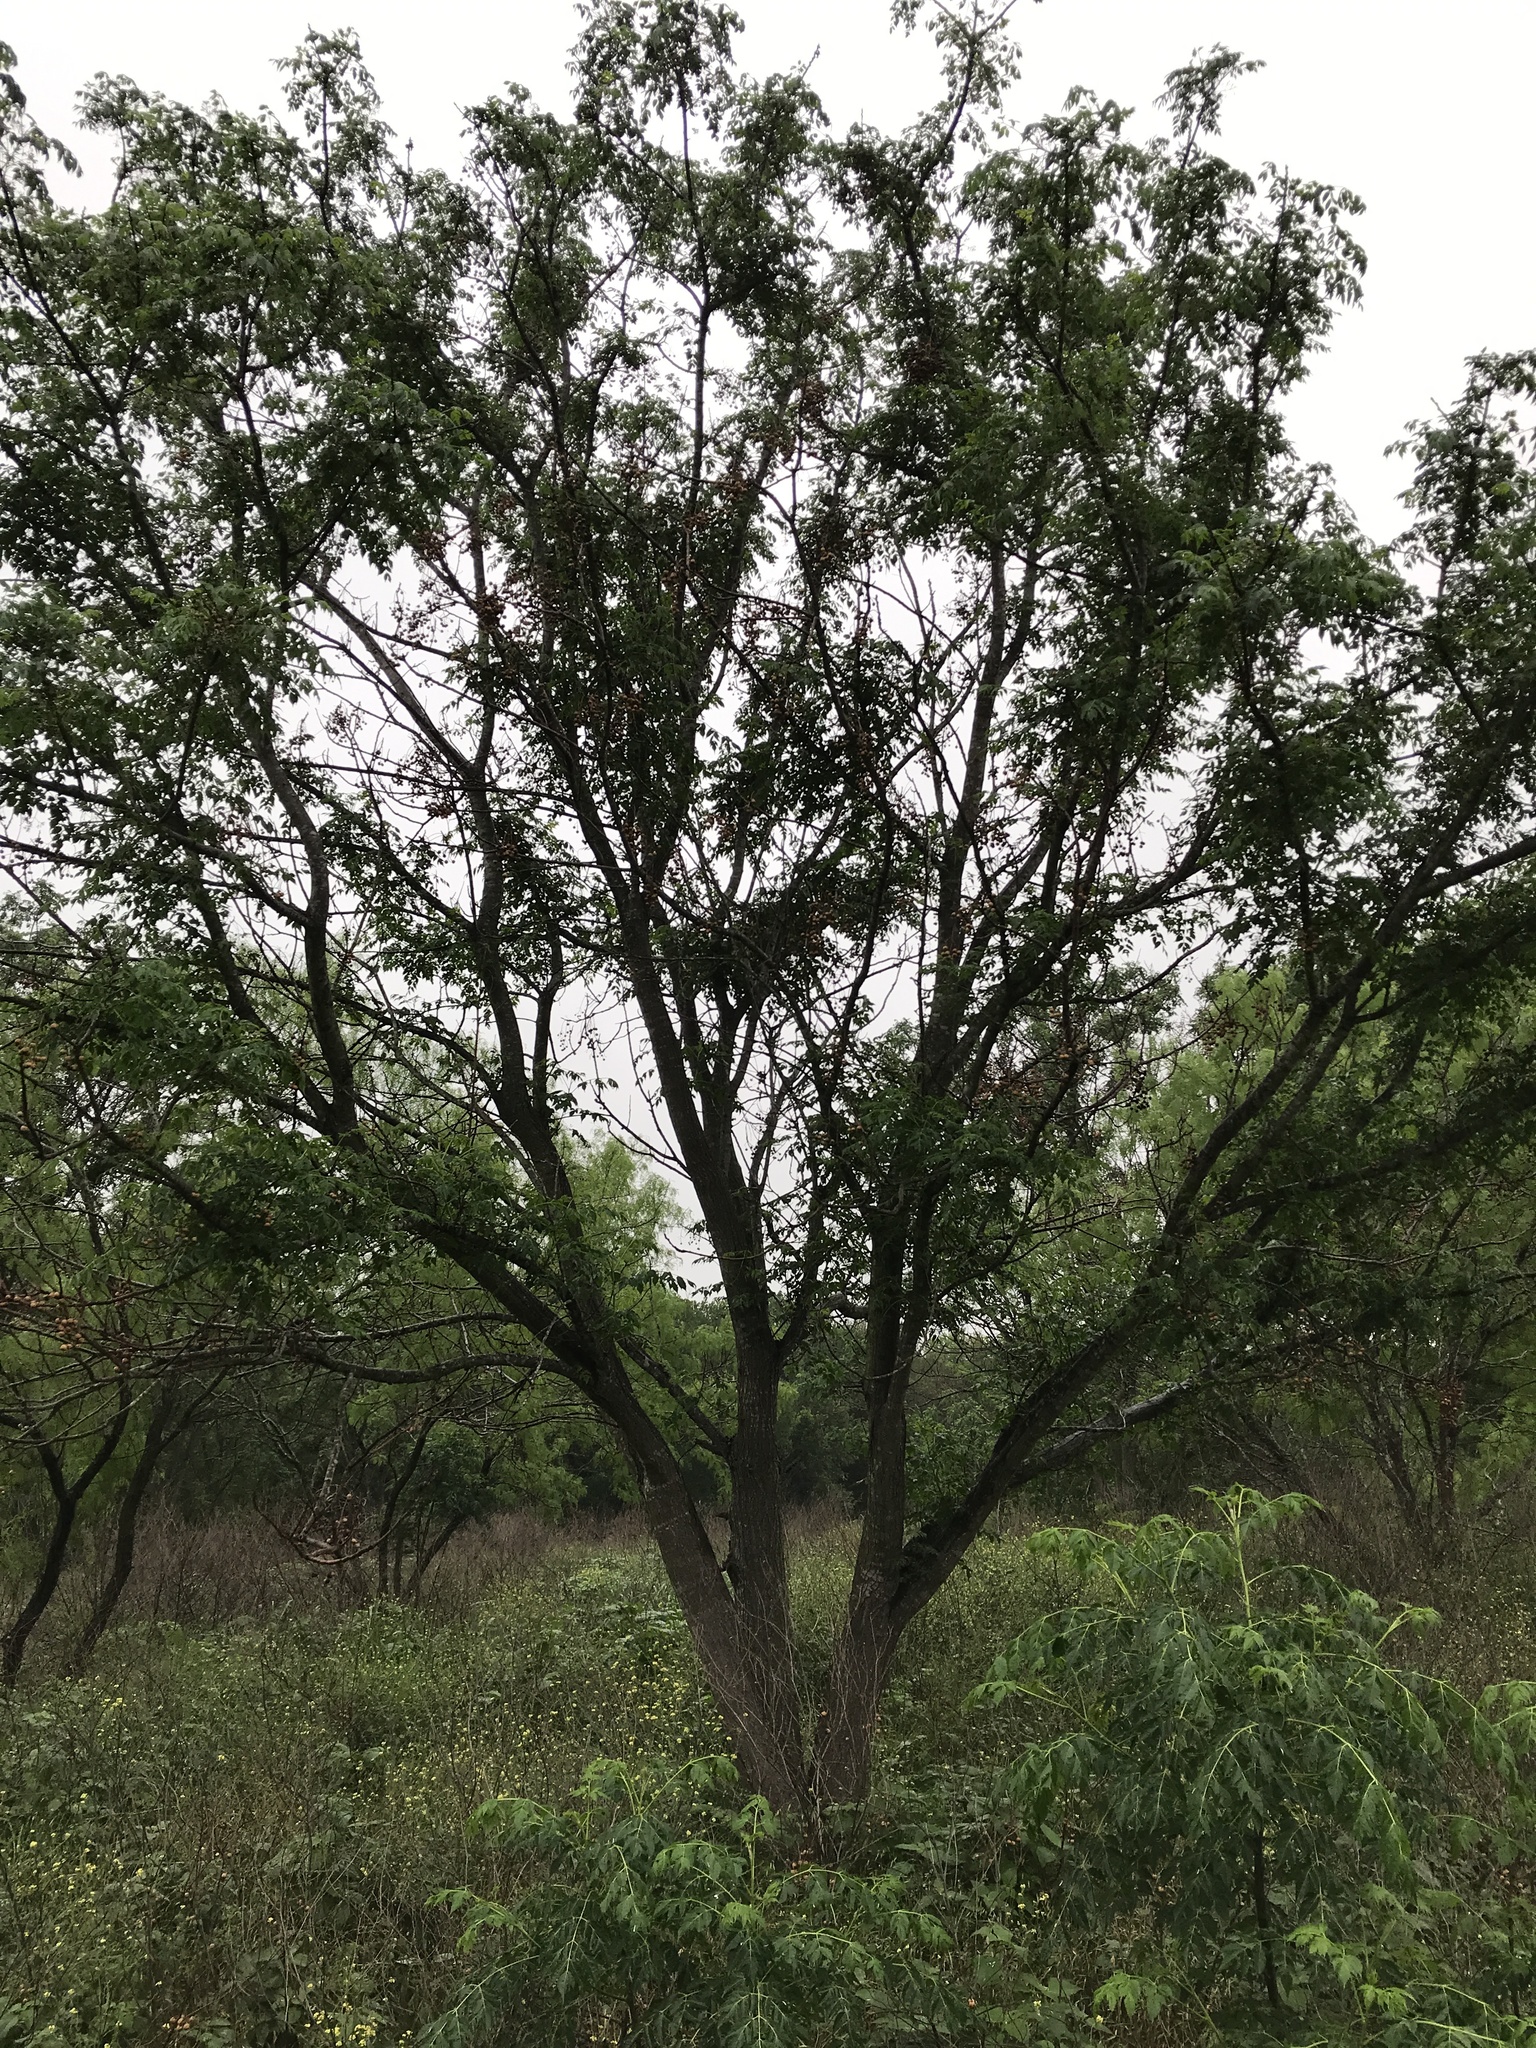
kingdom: Plantae
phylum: Tracheophyta
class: Magnoliopsida
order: Sapindales
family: Meliaceae
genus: Melia
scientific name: Melia azedarach
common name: Chinaberrytree
